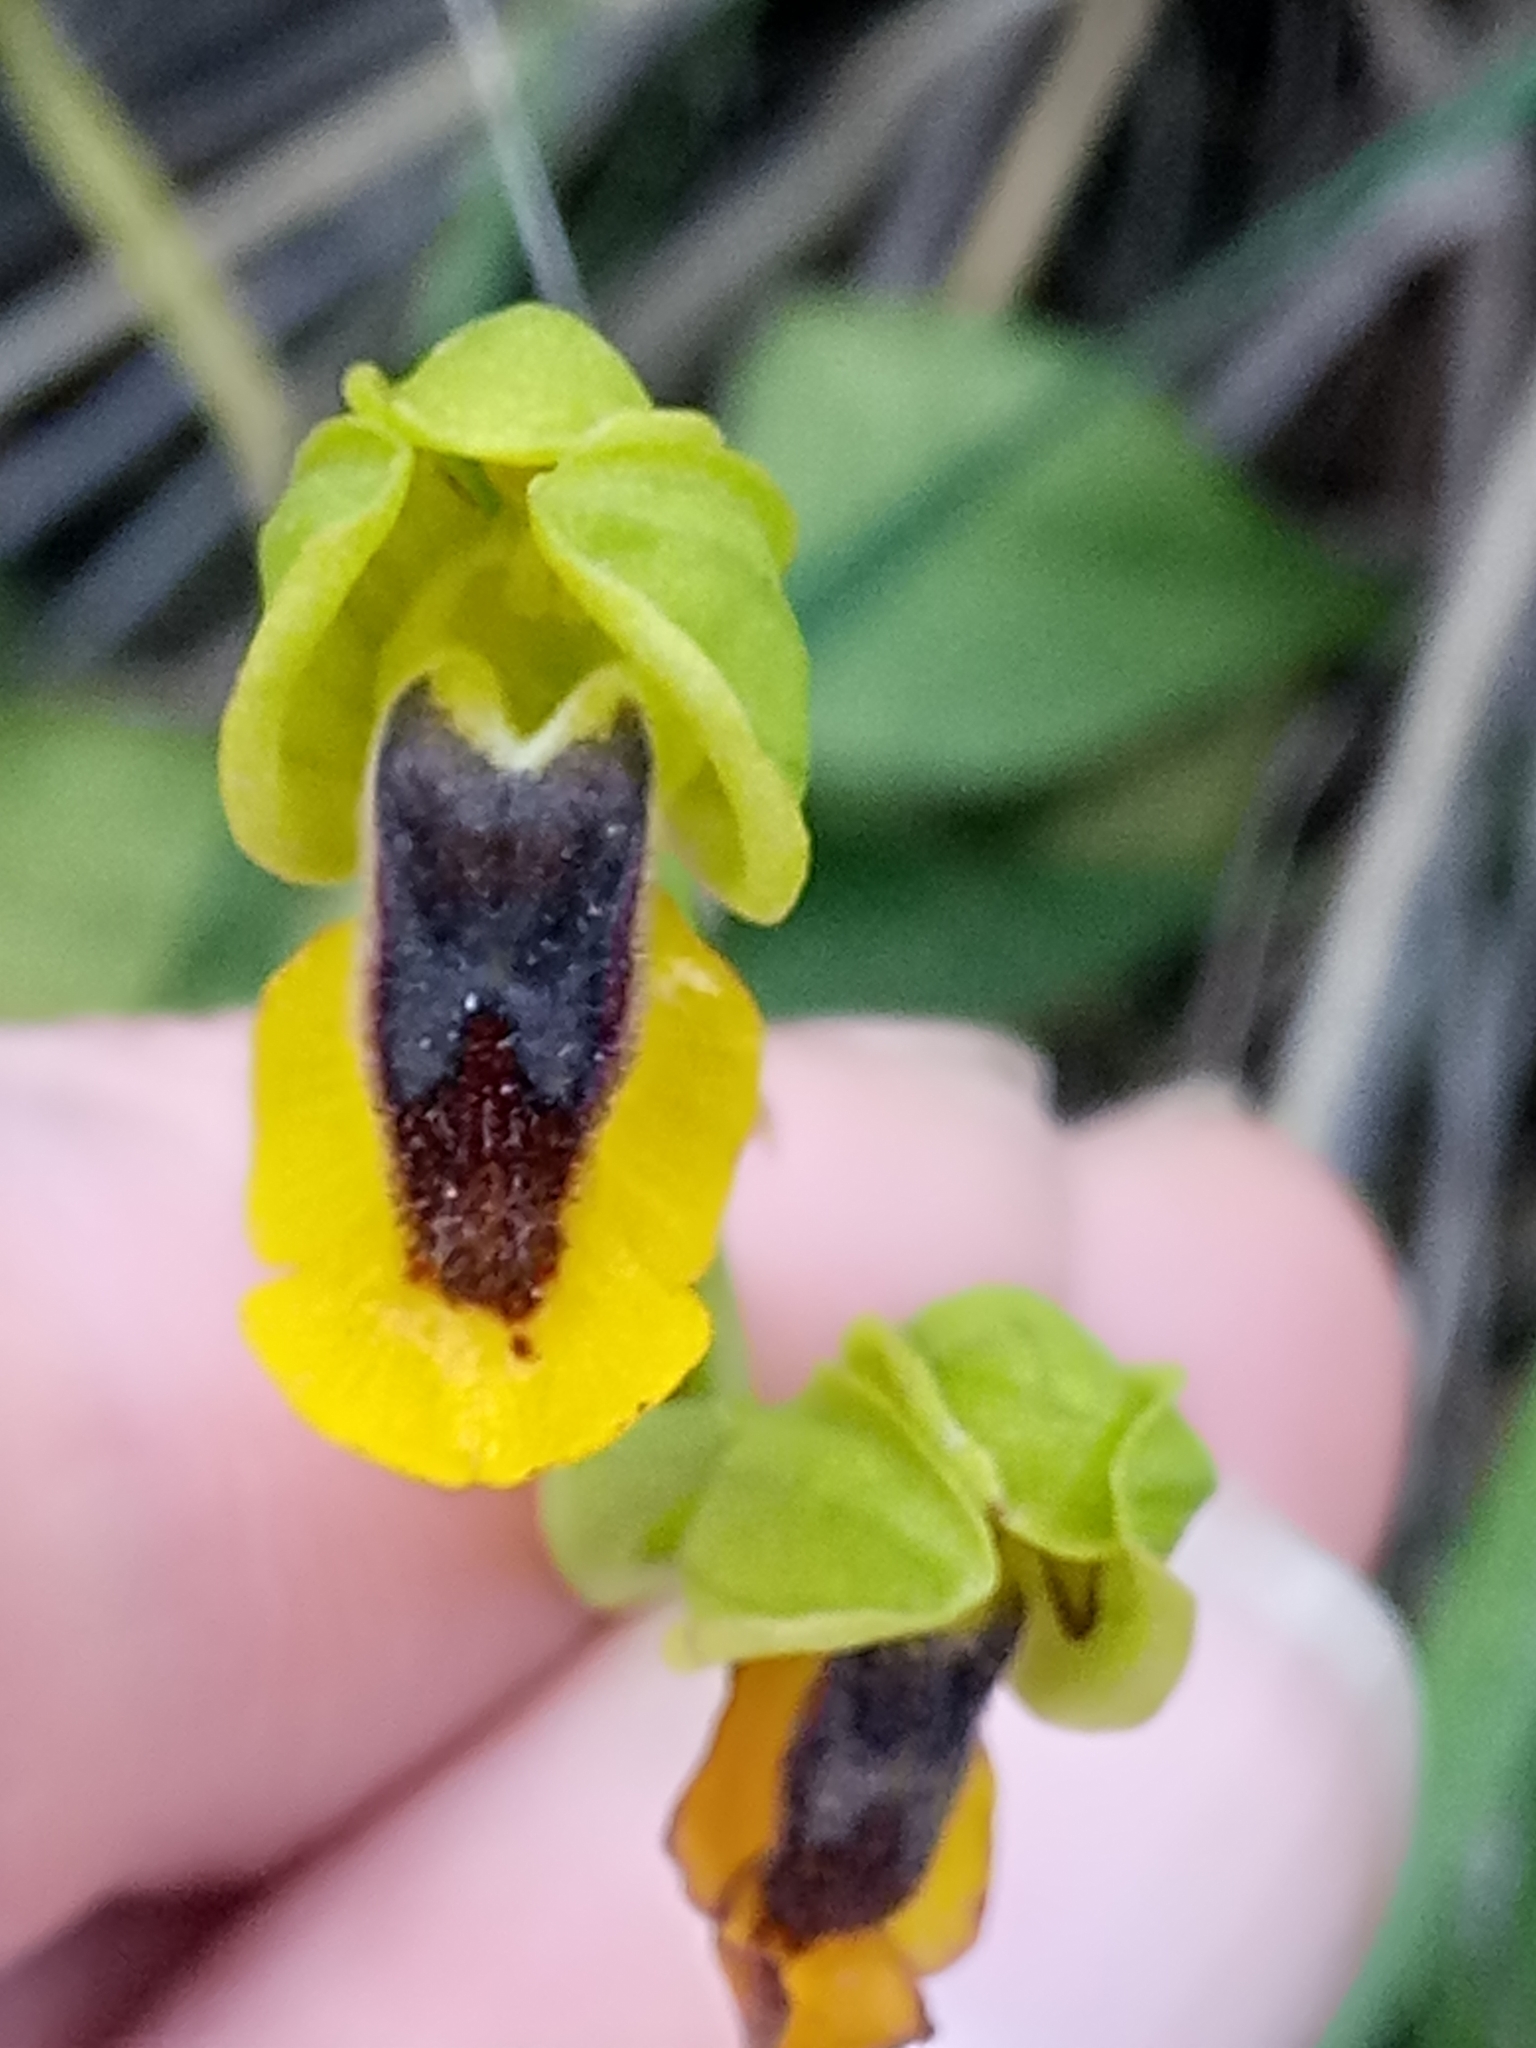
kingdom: Plantae
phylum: Tracheophyta
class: Liliopsida
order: Asparagales
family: Orchidaceae
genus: Ophrys
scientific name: Ophrys lutea
